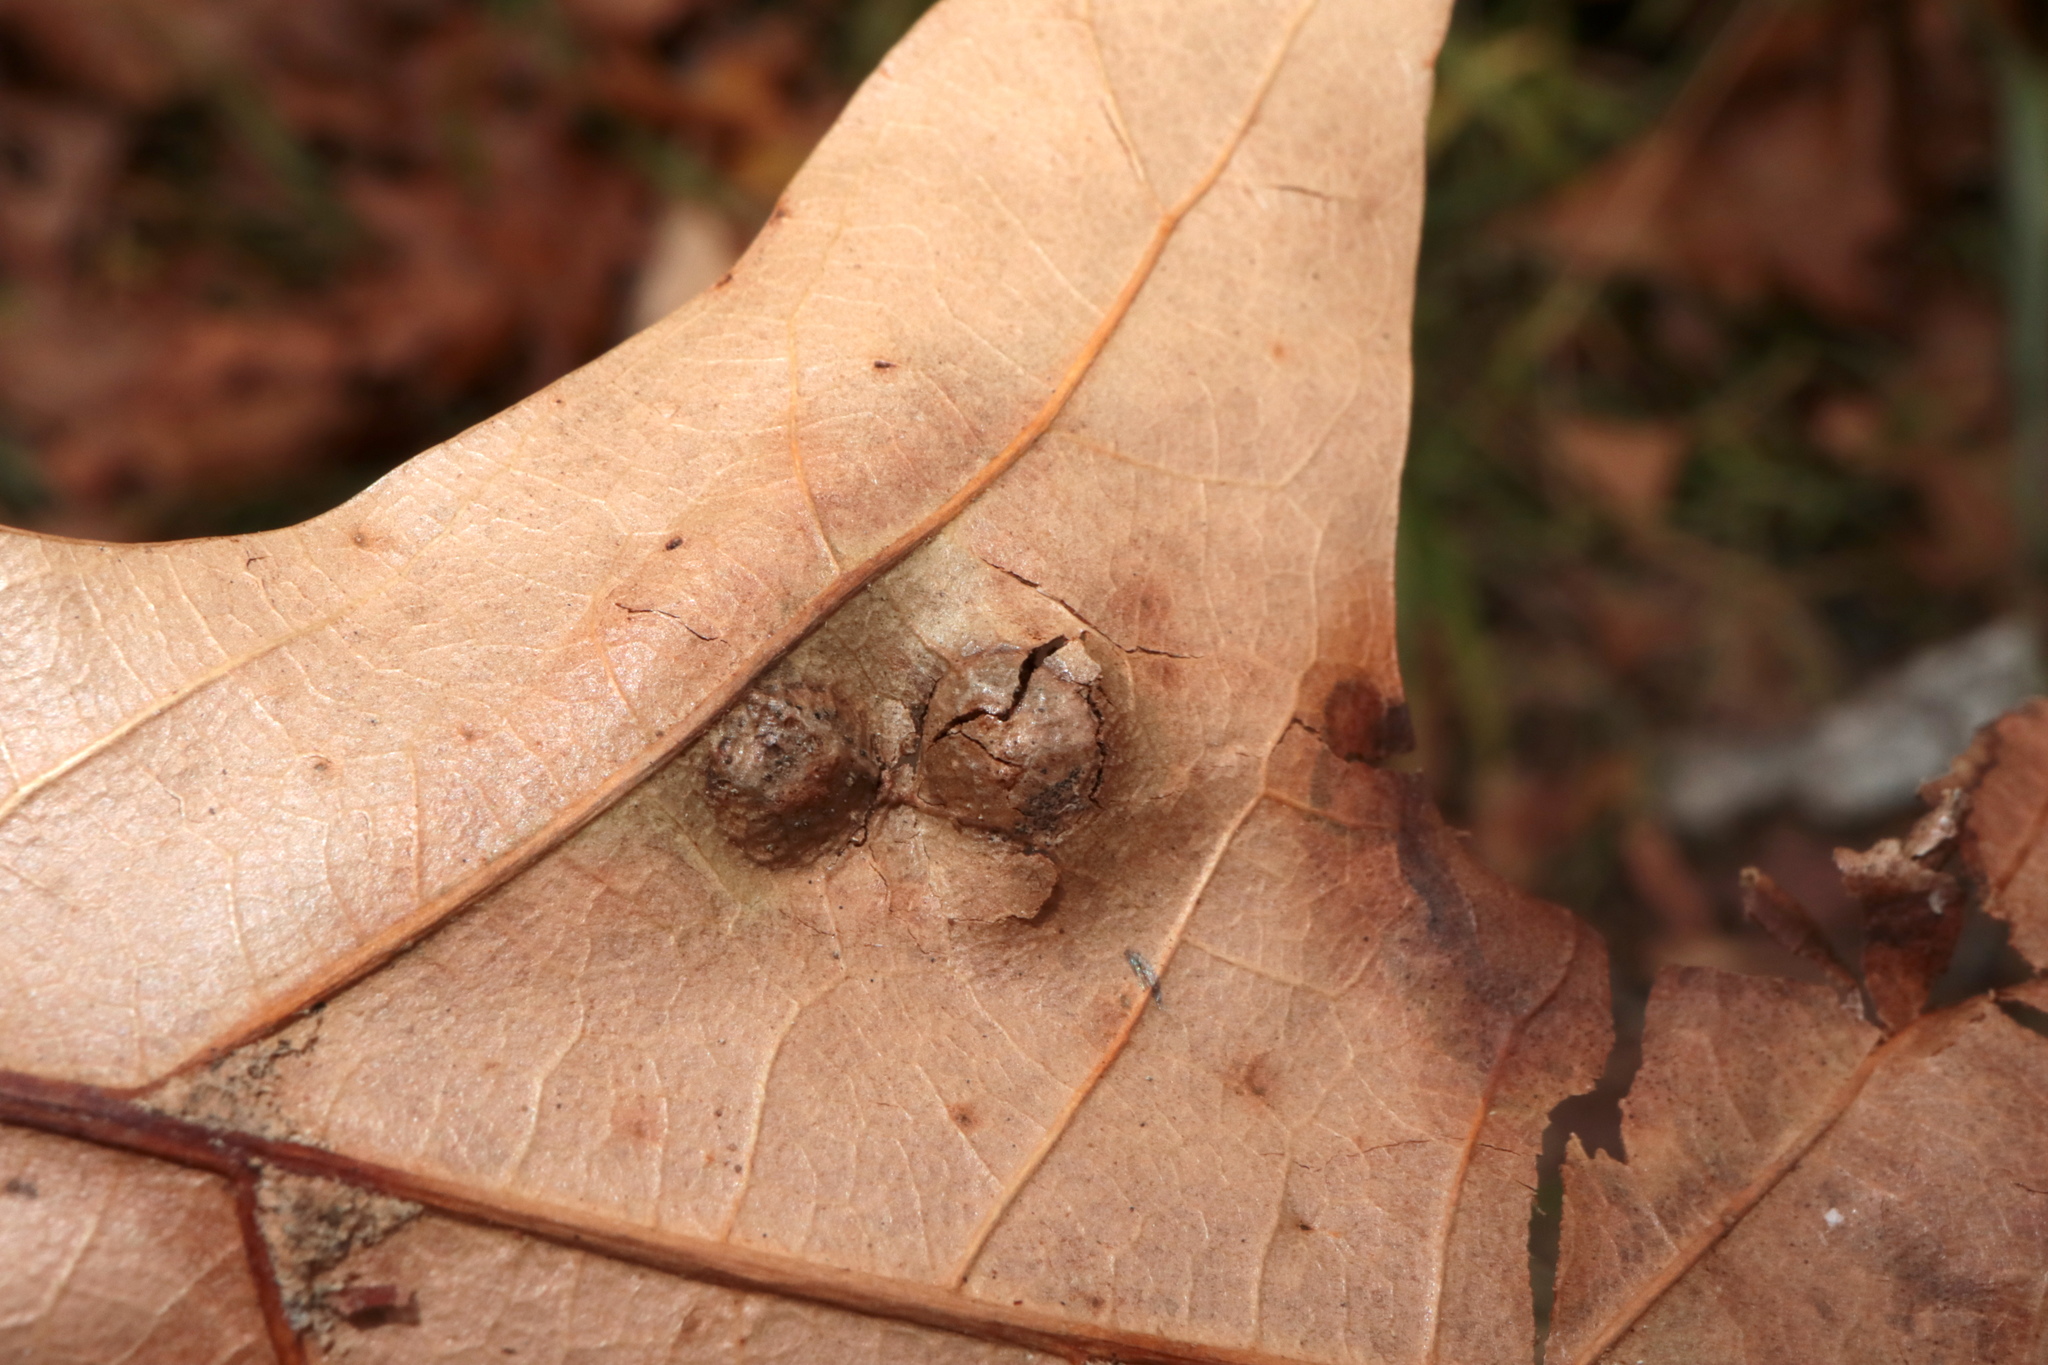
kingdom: Animalia
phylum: Arthropoda
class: Insecta
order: Diptera
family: Cecidomyiidae
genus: Polystepha
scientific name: Polystepha pilulae
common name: Oak leaf gall midge
